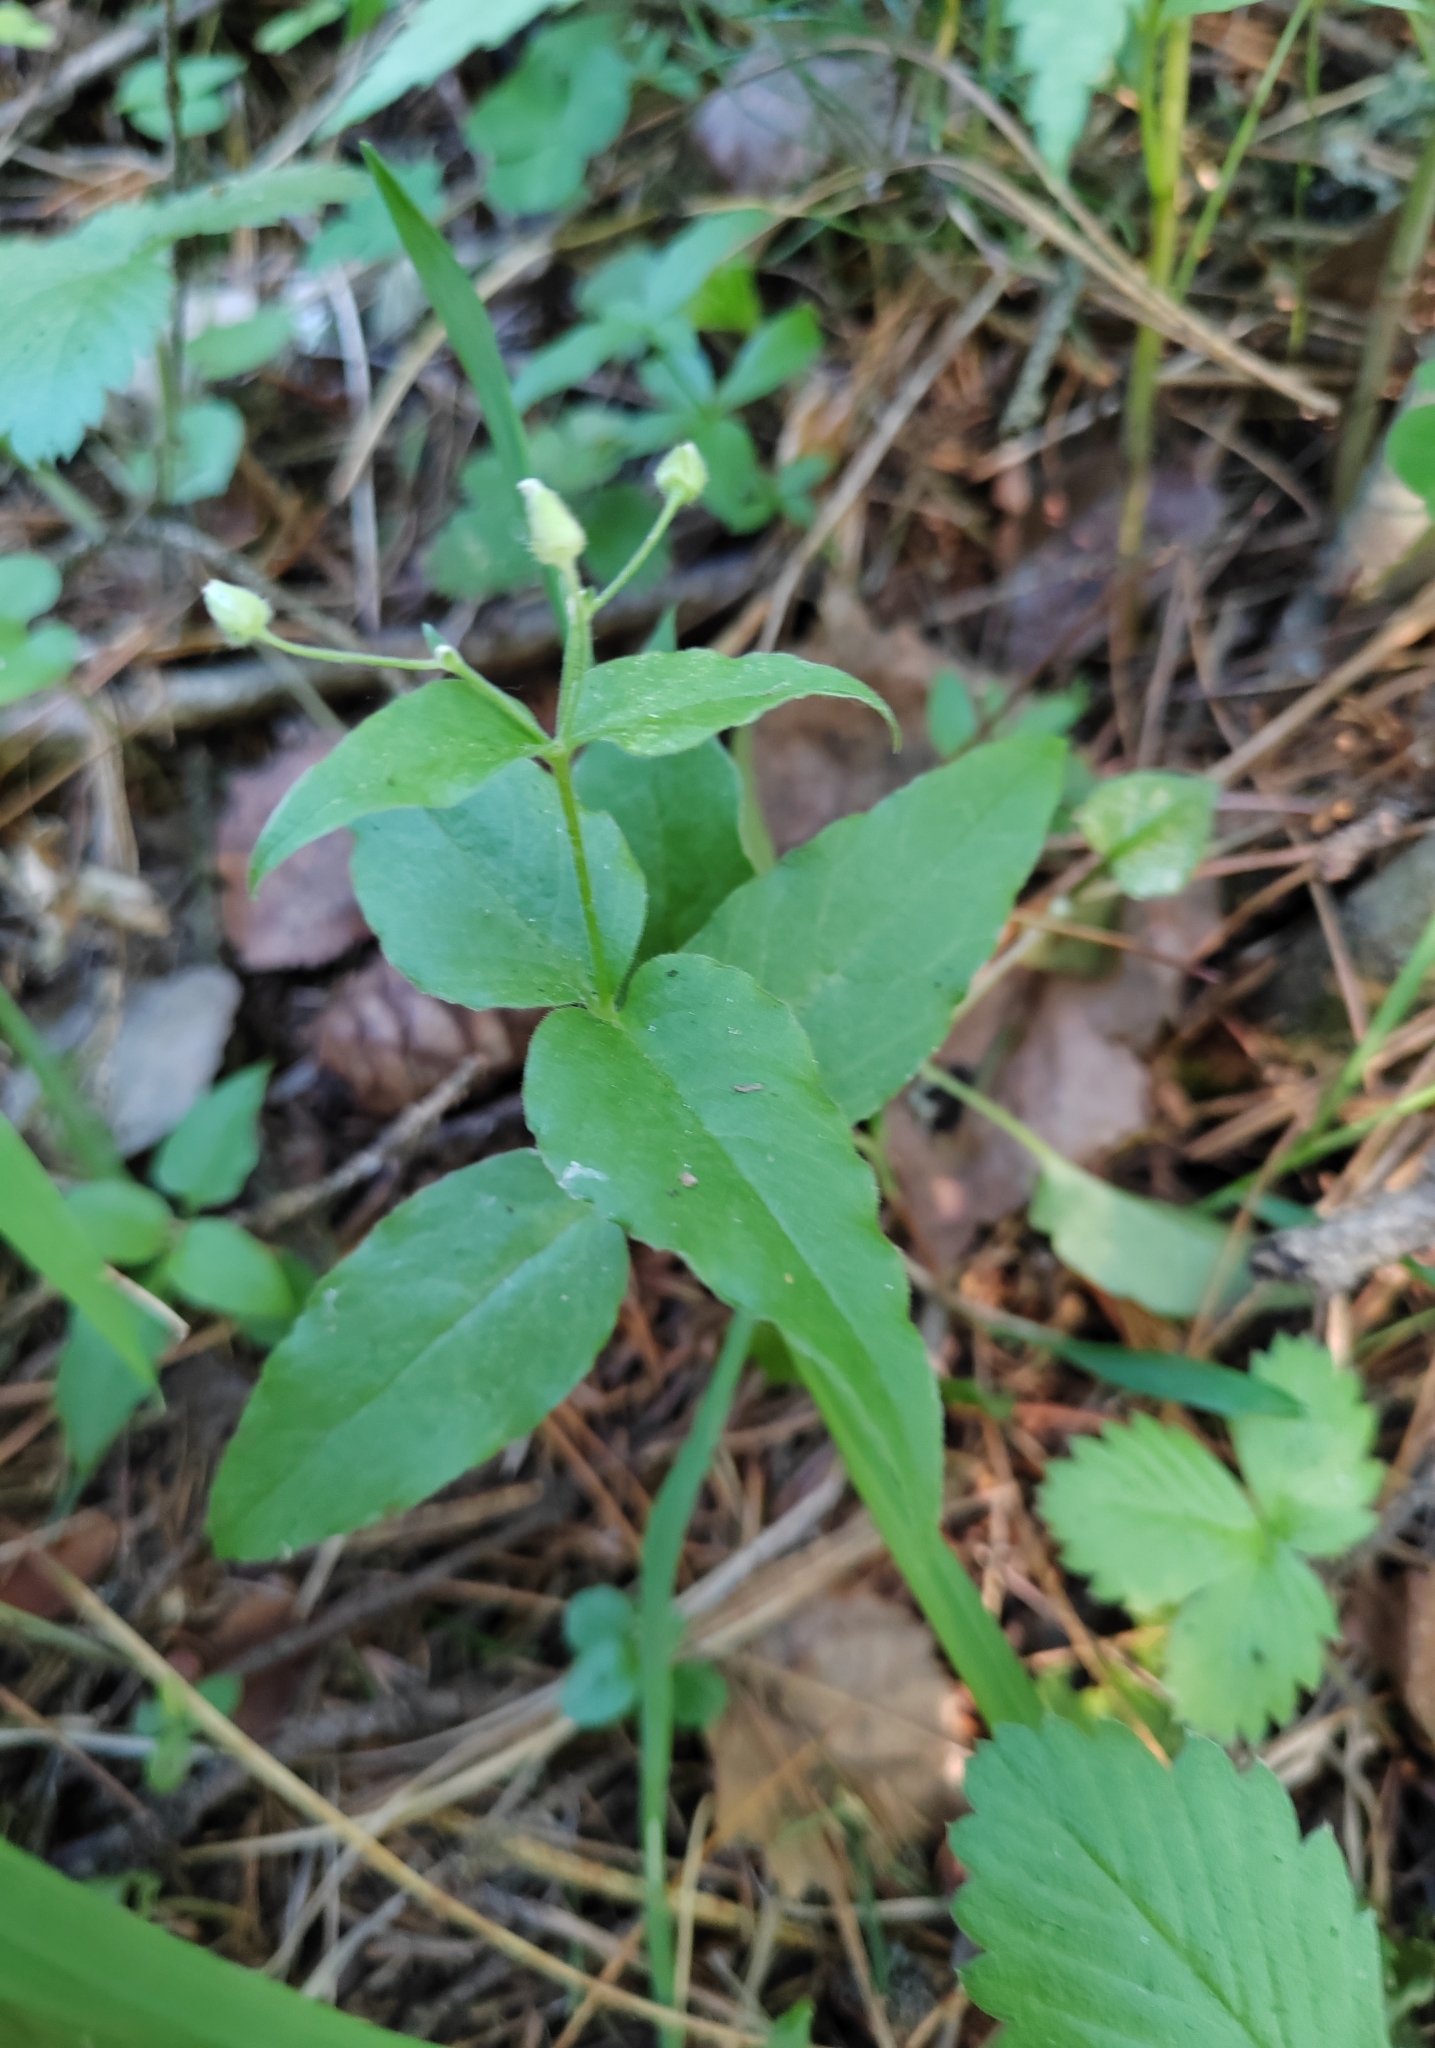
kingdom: Plantae
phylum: Tracheophyta
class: Magnoliopsida
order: Caryophyllales
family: Caryophyllaceae
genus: Stellaria
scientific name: Stellaria bungeana
